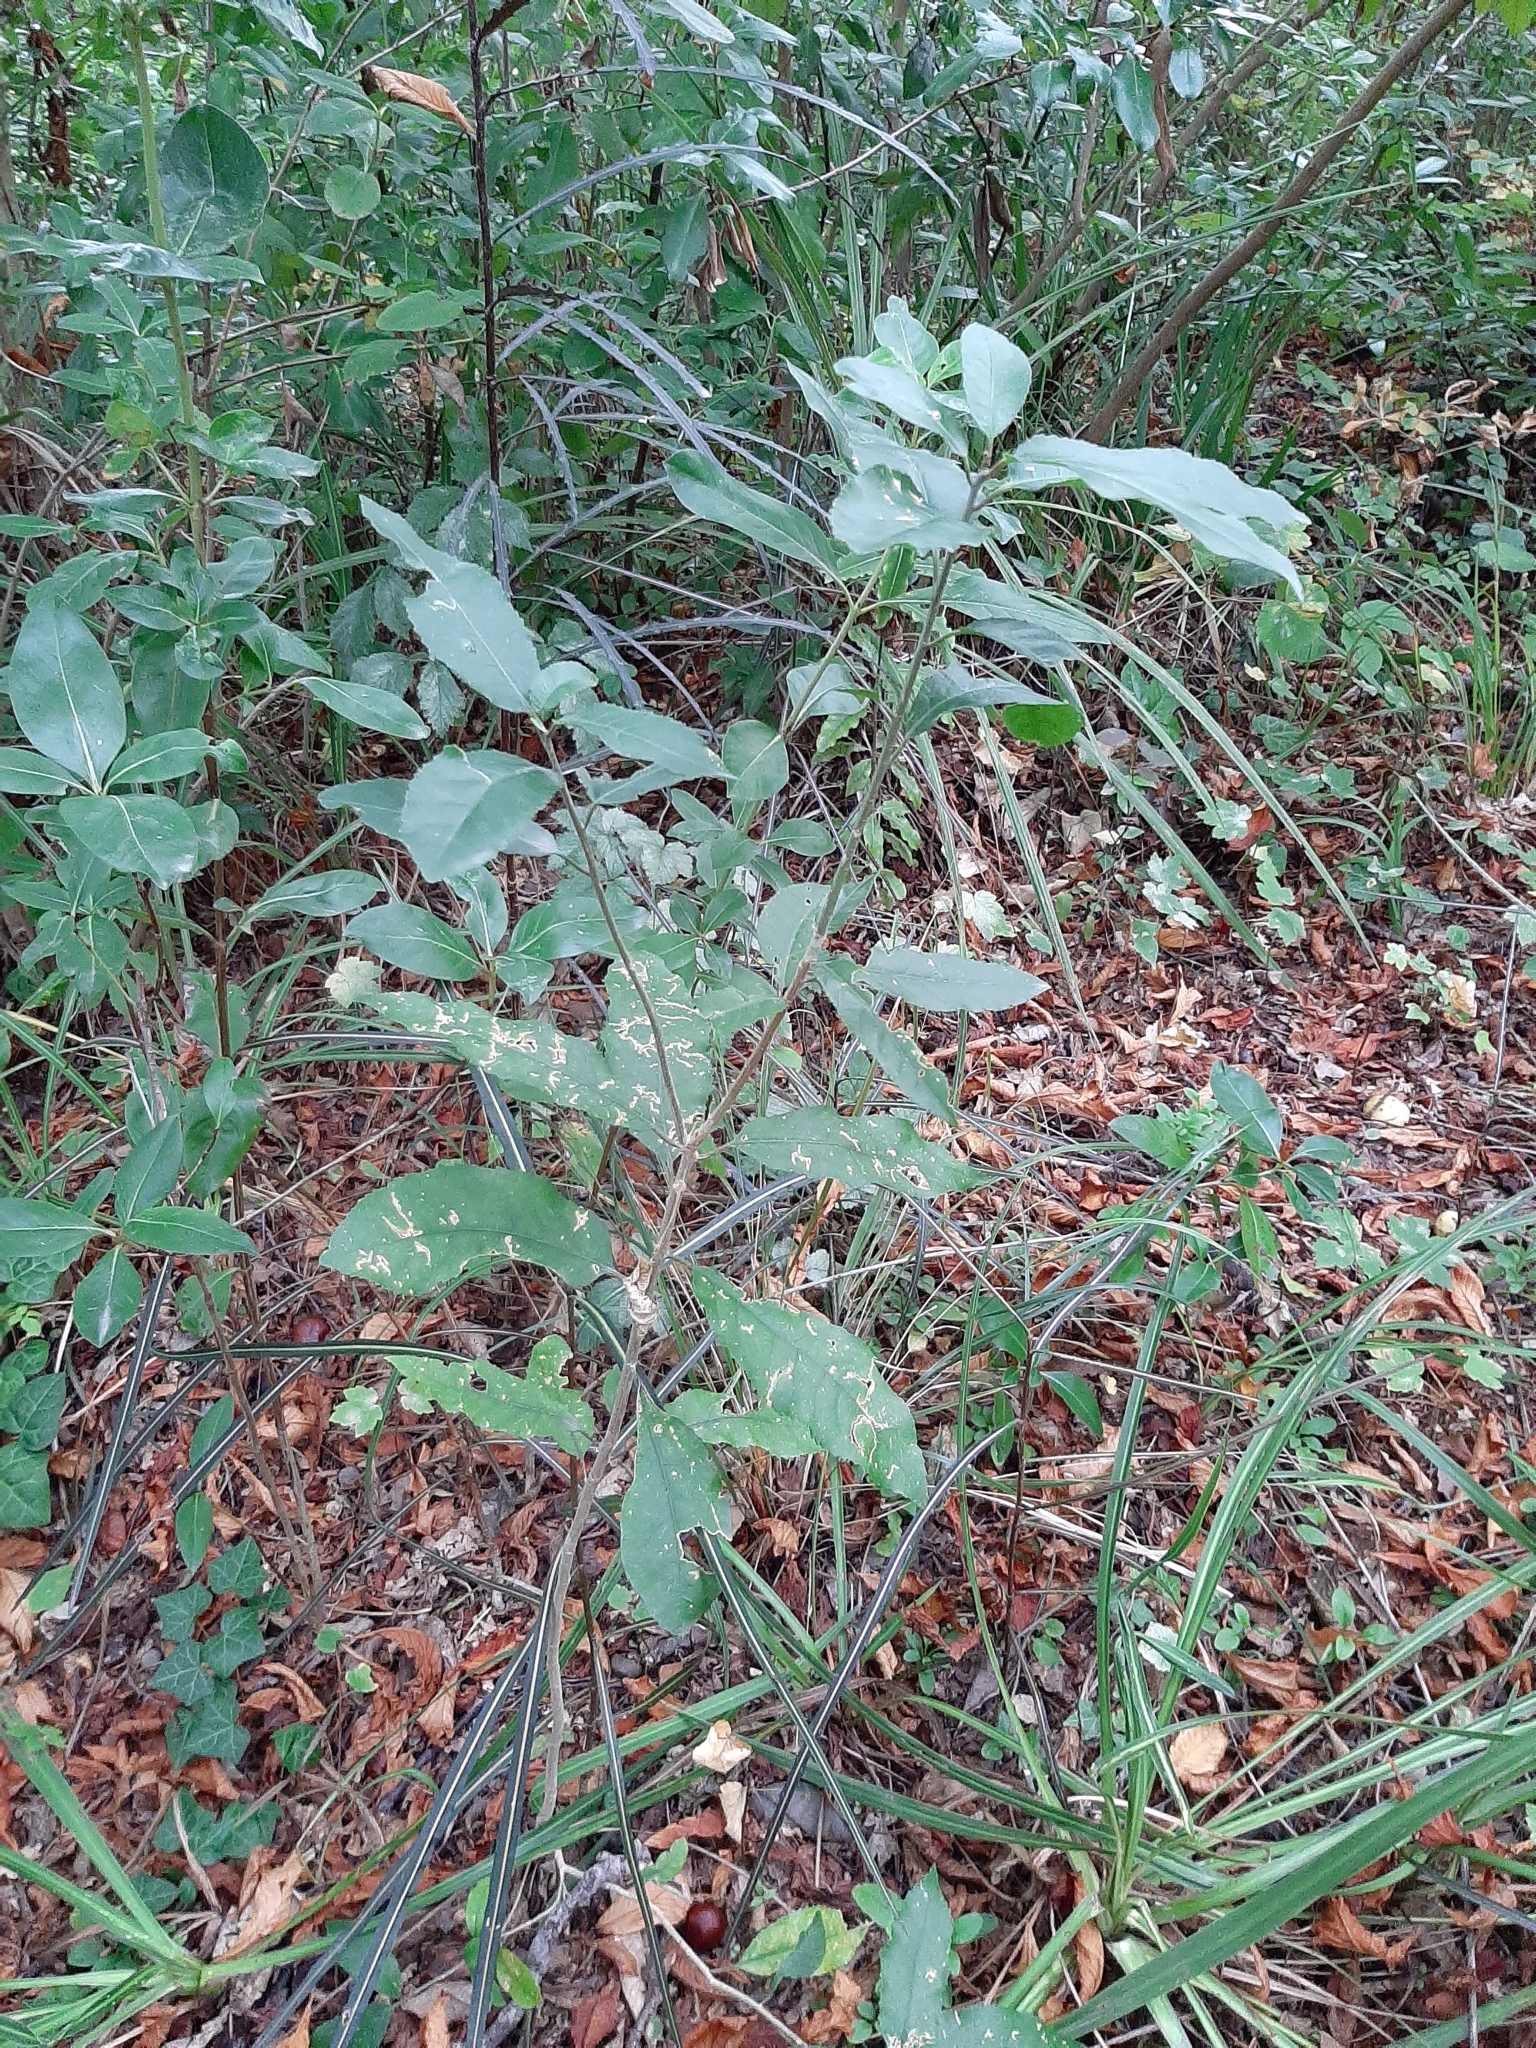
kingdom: Plantae
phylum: Tracheophyta
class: Magnoliopsida
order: Malpighiales
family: Violaceae
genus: Melicytus
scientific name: Melicytus ramiflorus
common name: Mahoe
